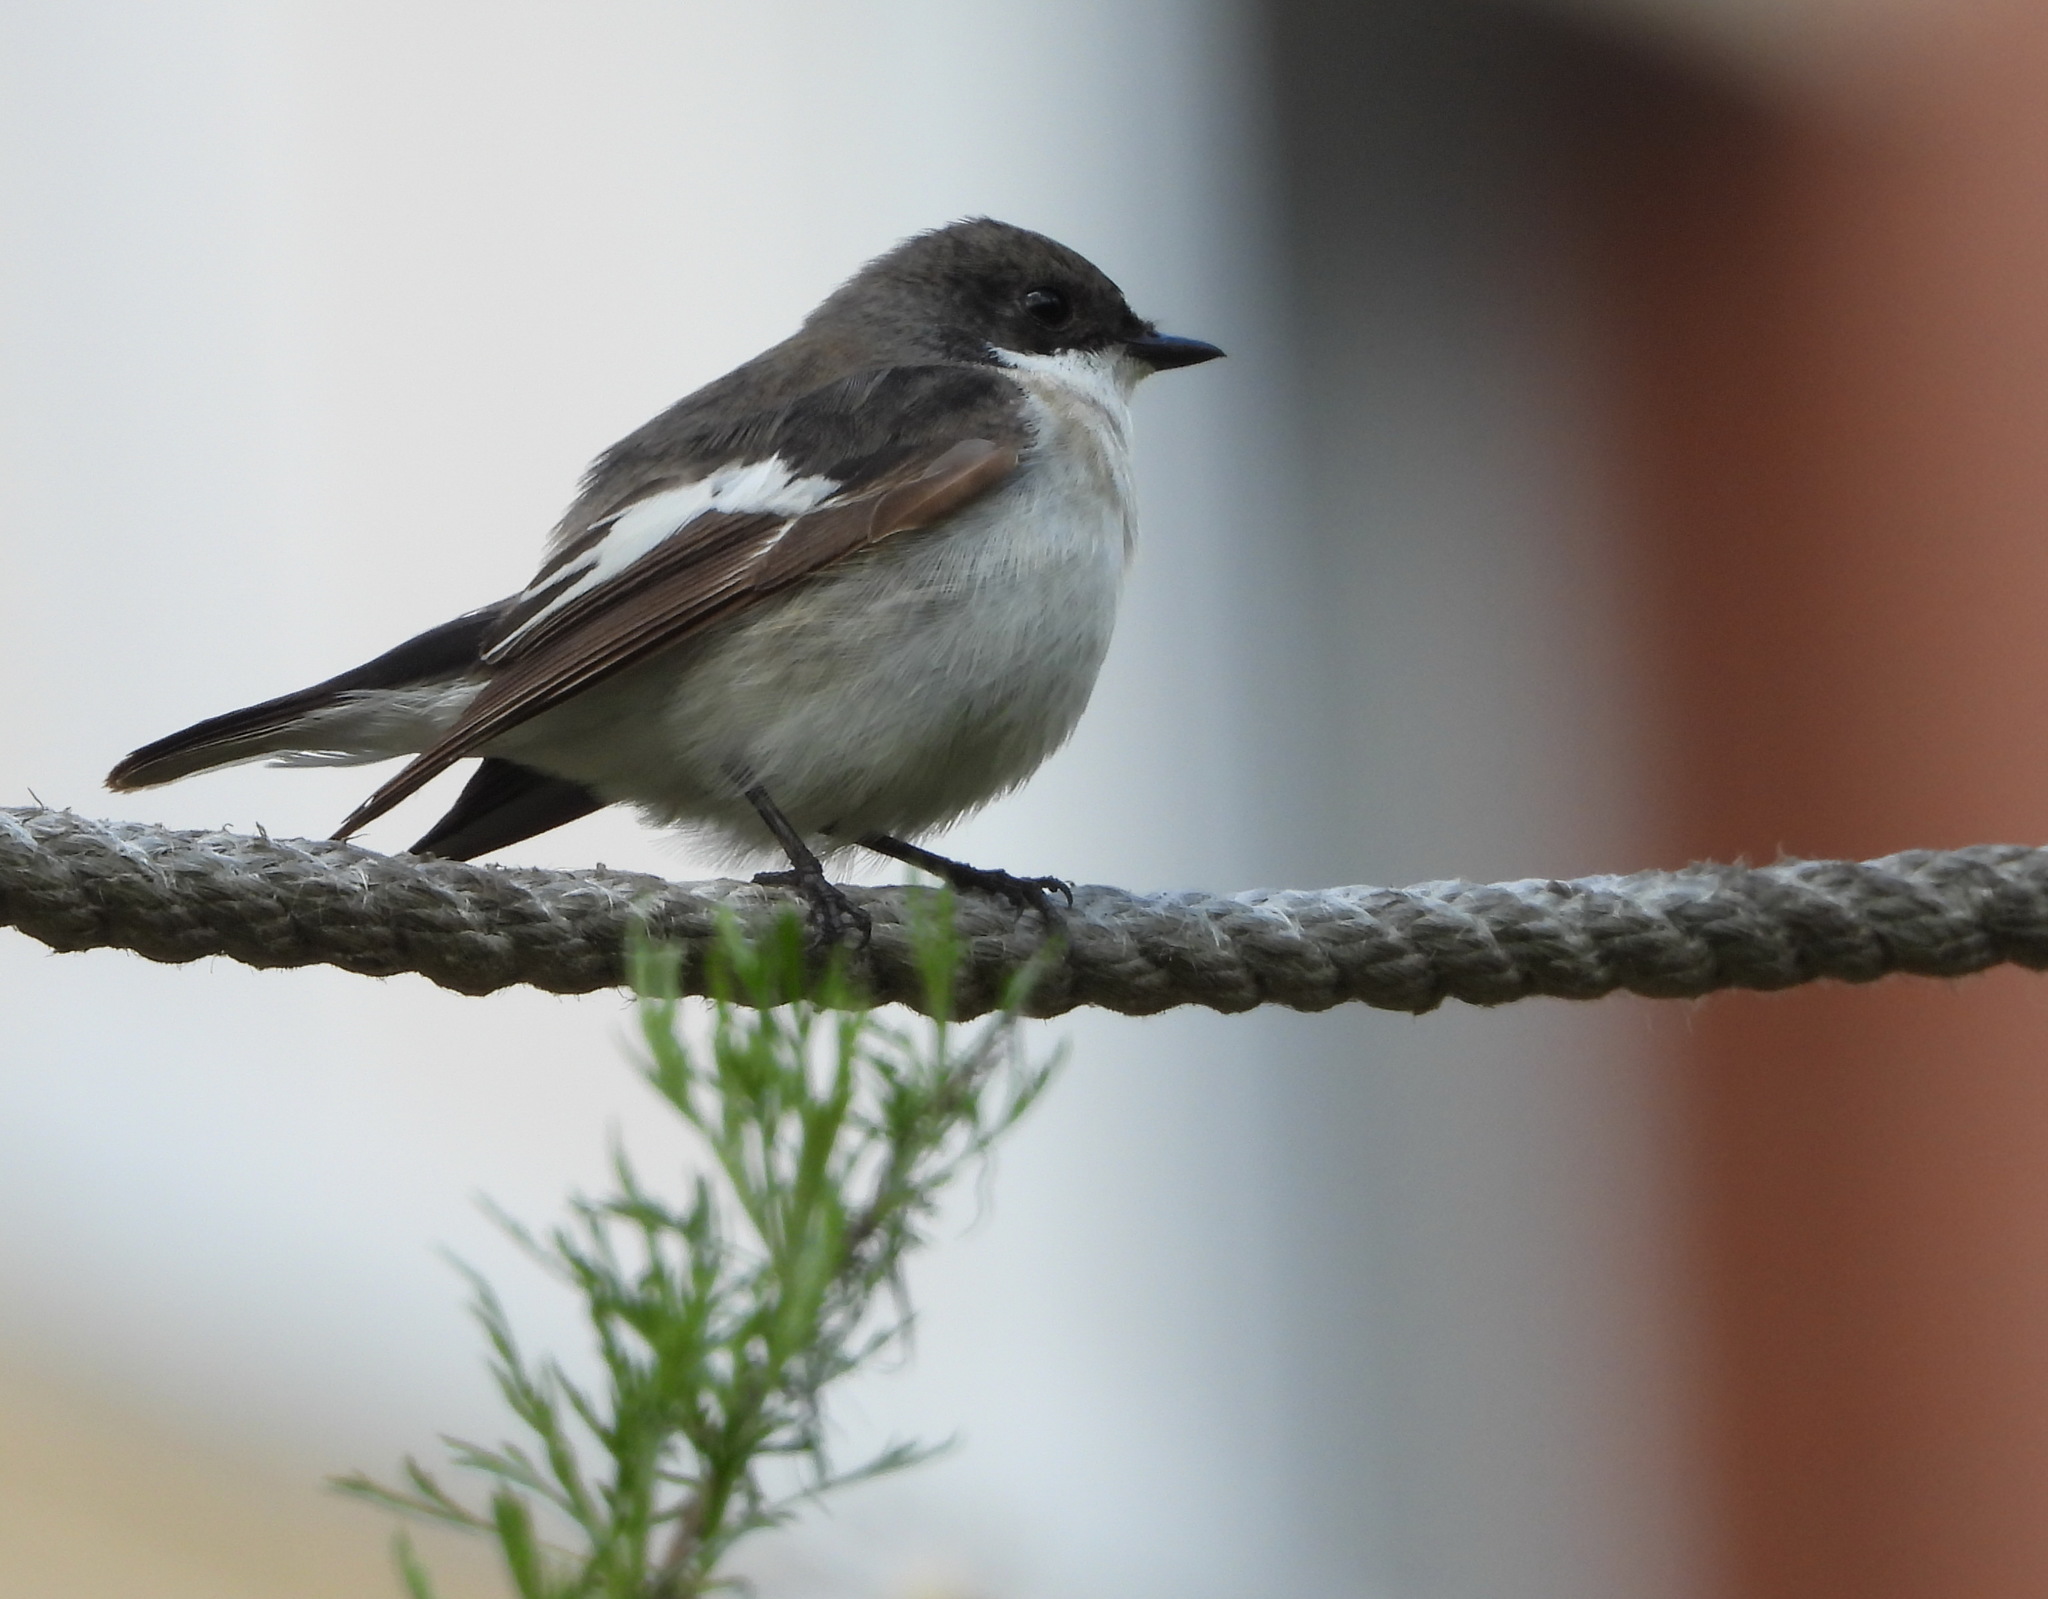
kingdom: Animalia
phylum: Chordata
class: Aves
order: Passeriformes
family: Muscicapidae
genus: Ficedula
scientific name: Ficedula hypoleuca
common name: European pied flycatcher
